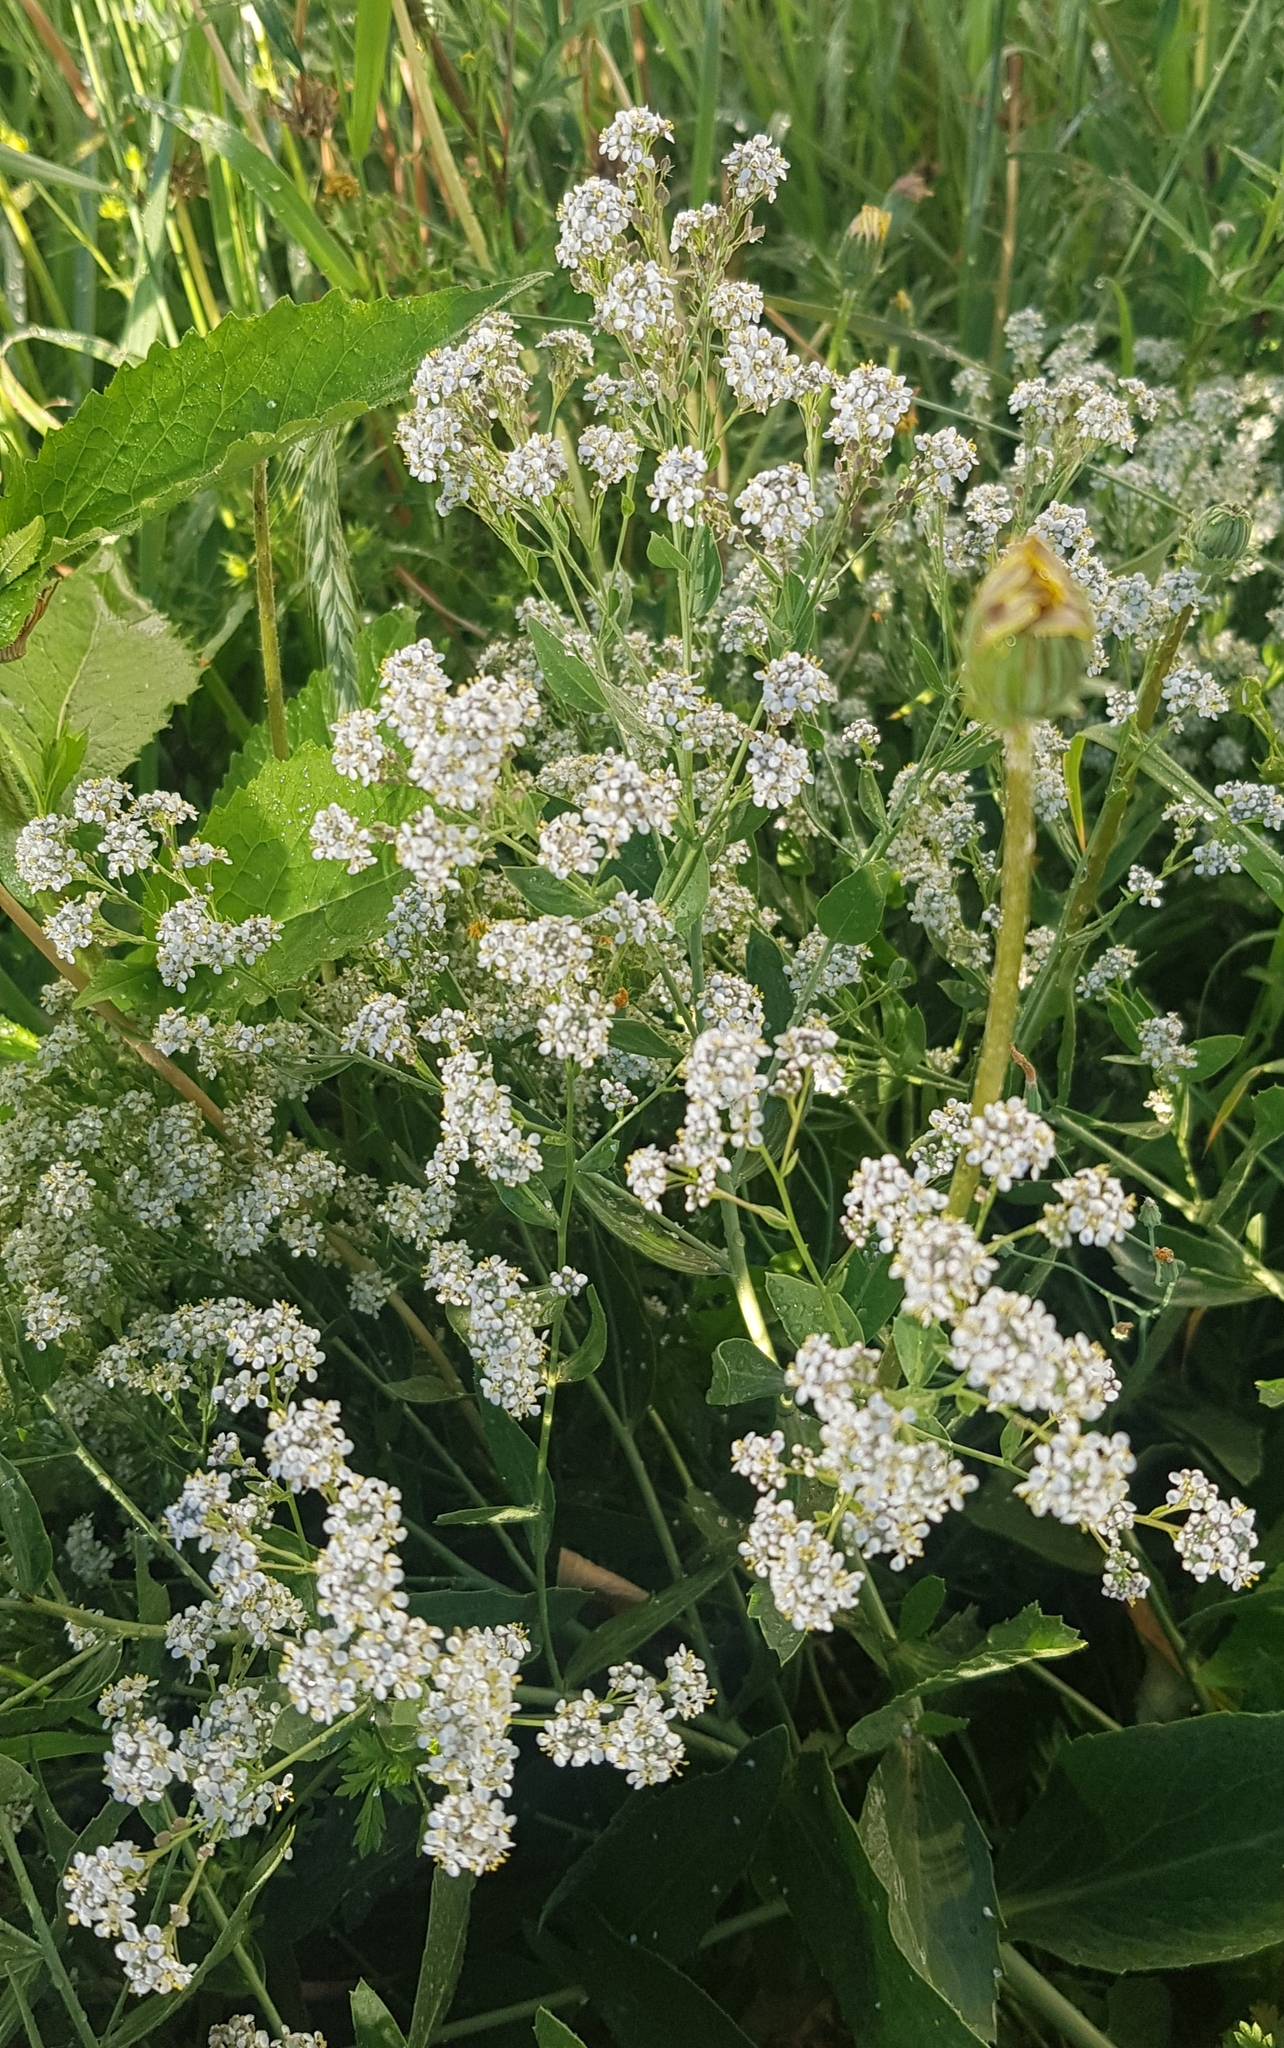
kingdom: Plantae
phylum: Tracheophyta
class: Magnoliopsida
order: Brassicales
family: Brassicaceae
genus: Lepidium
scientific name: Lepidium latifolium
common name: Dittander
